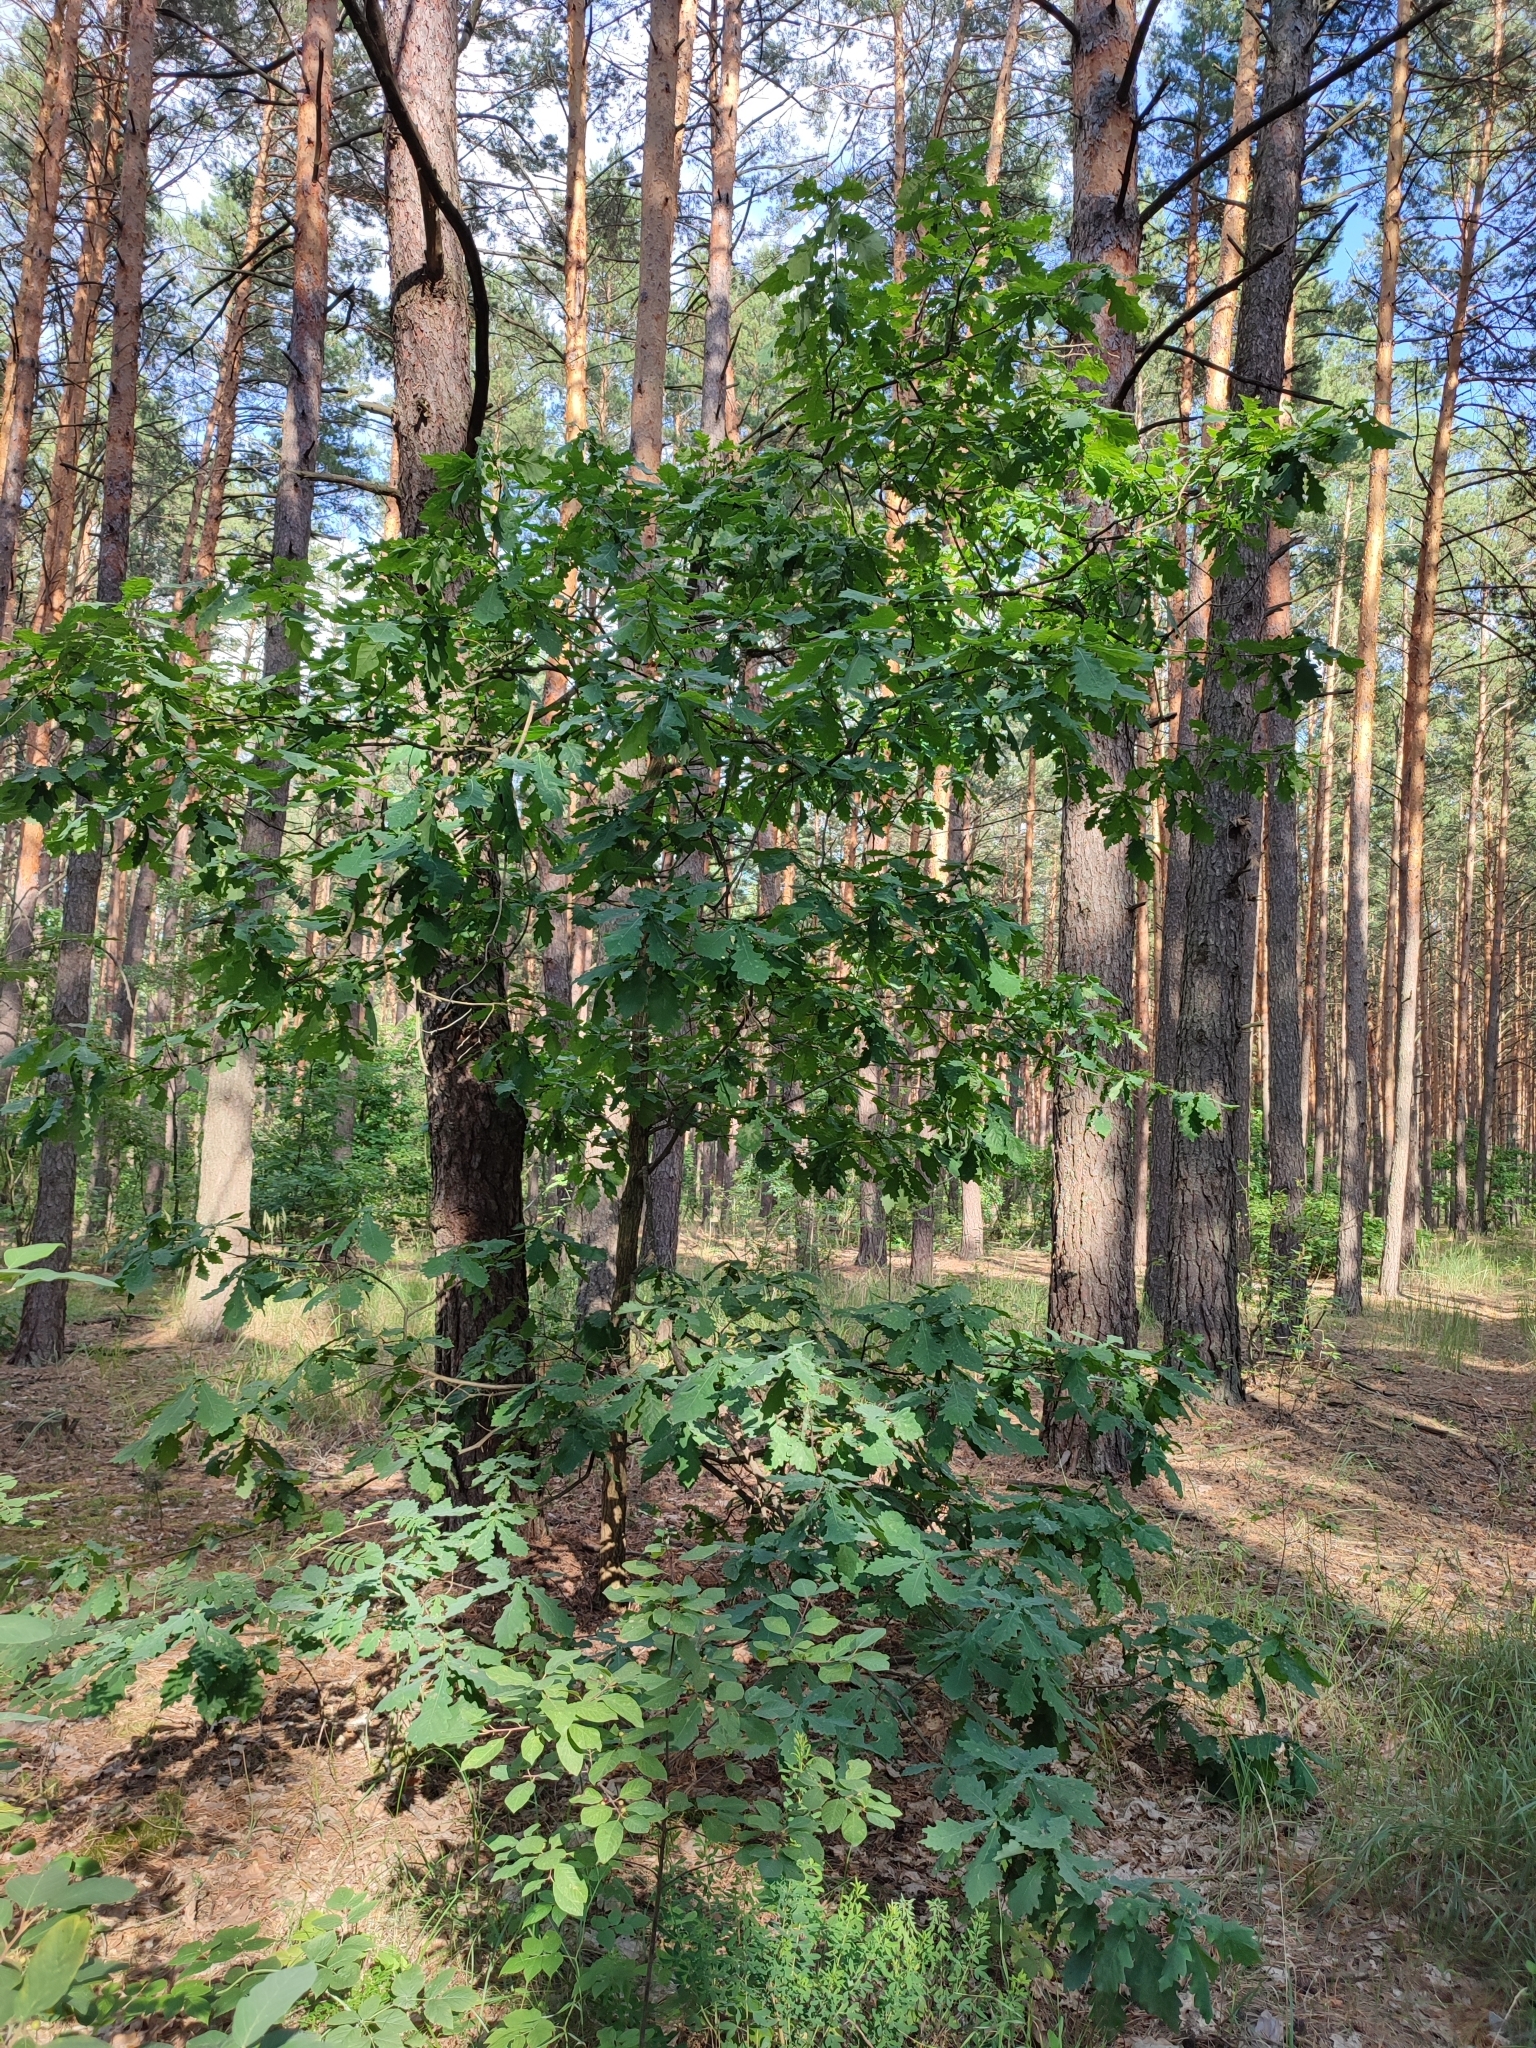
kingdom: Plantae
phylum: Tracheophyta
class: Magnoliopsida
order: Fagales
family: Fagaceae
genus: Quercus
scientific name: Quercus robur
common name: Pedunculate oak
